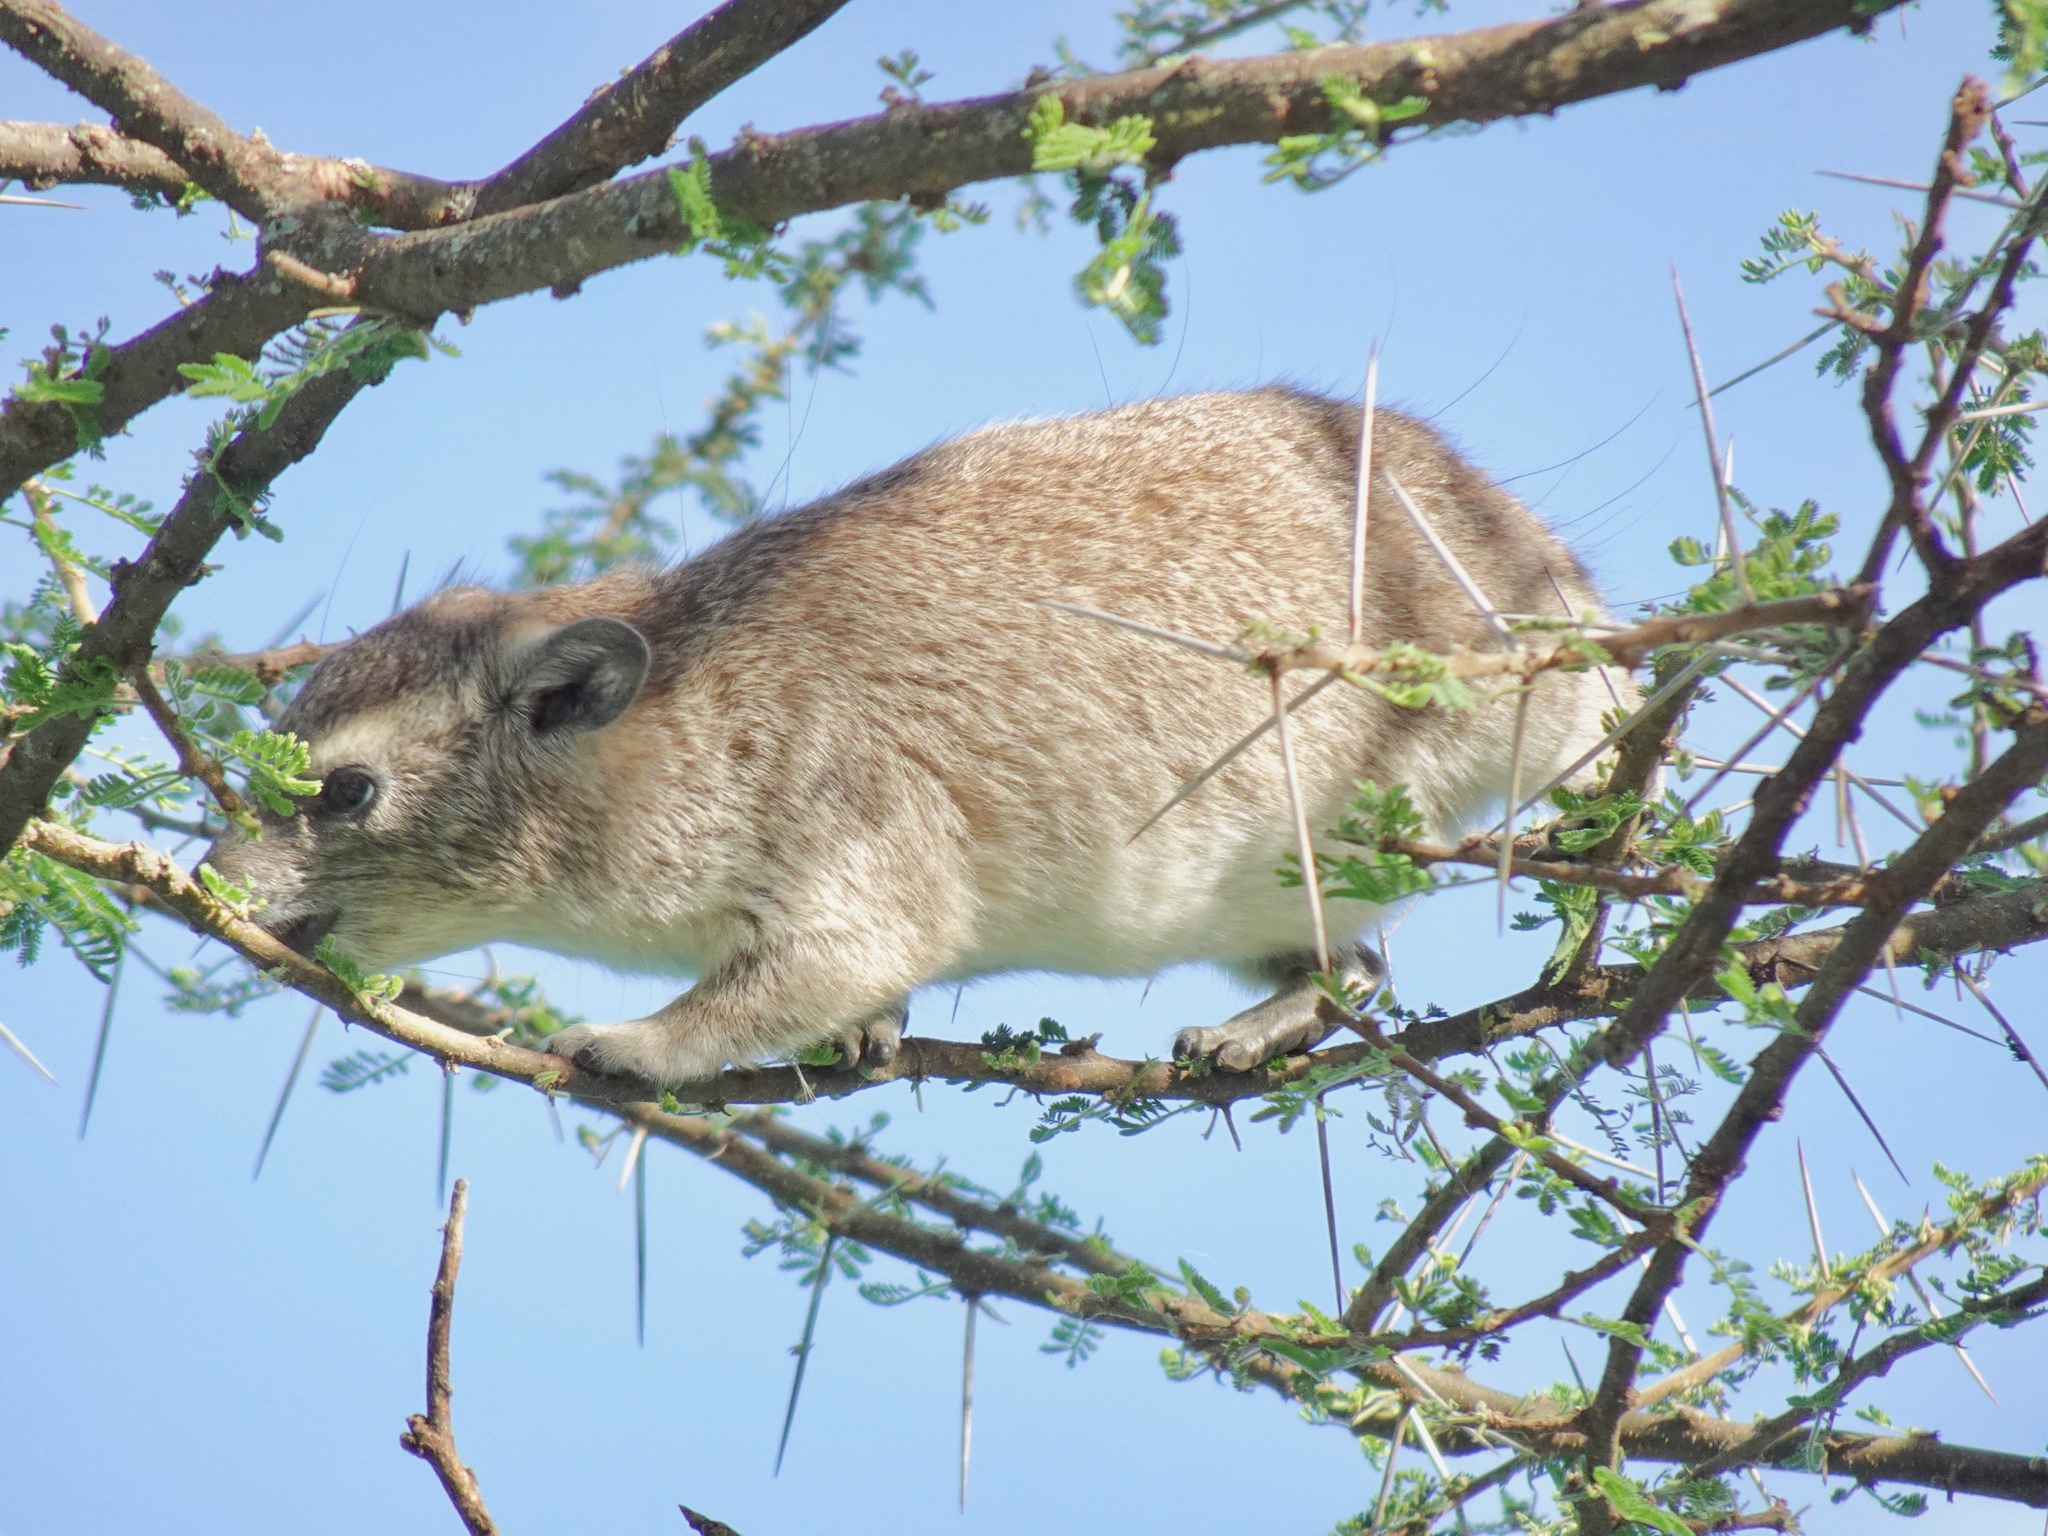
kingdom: Animalia
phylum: Chordata
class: Mammalia
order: Hyracoidea
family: Procaviidae
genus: Heterohyrax
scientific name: Heterohyrax brucei
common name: Bush hyrax
